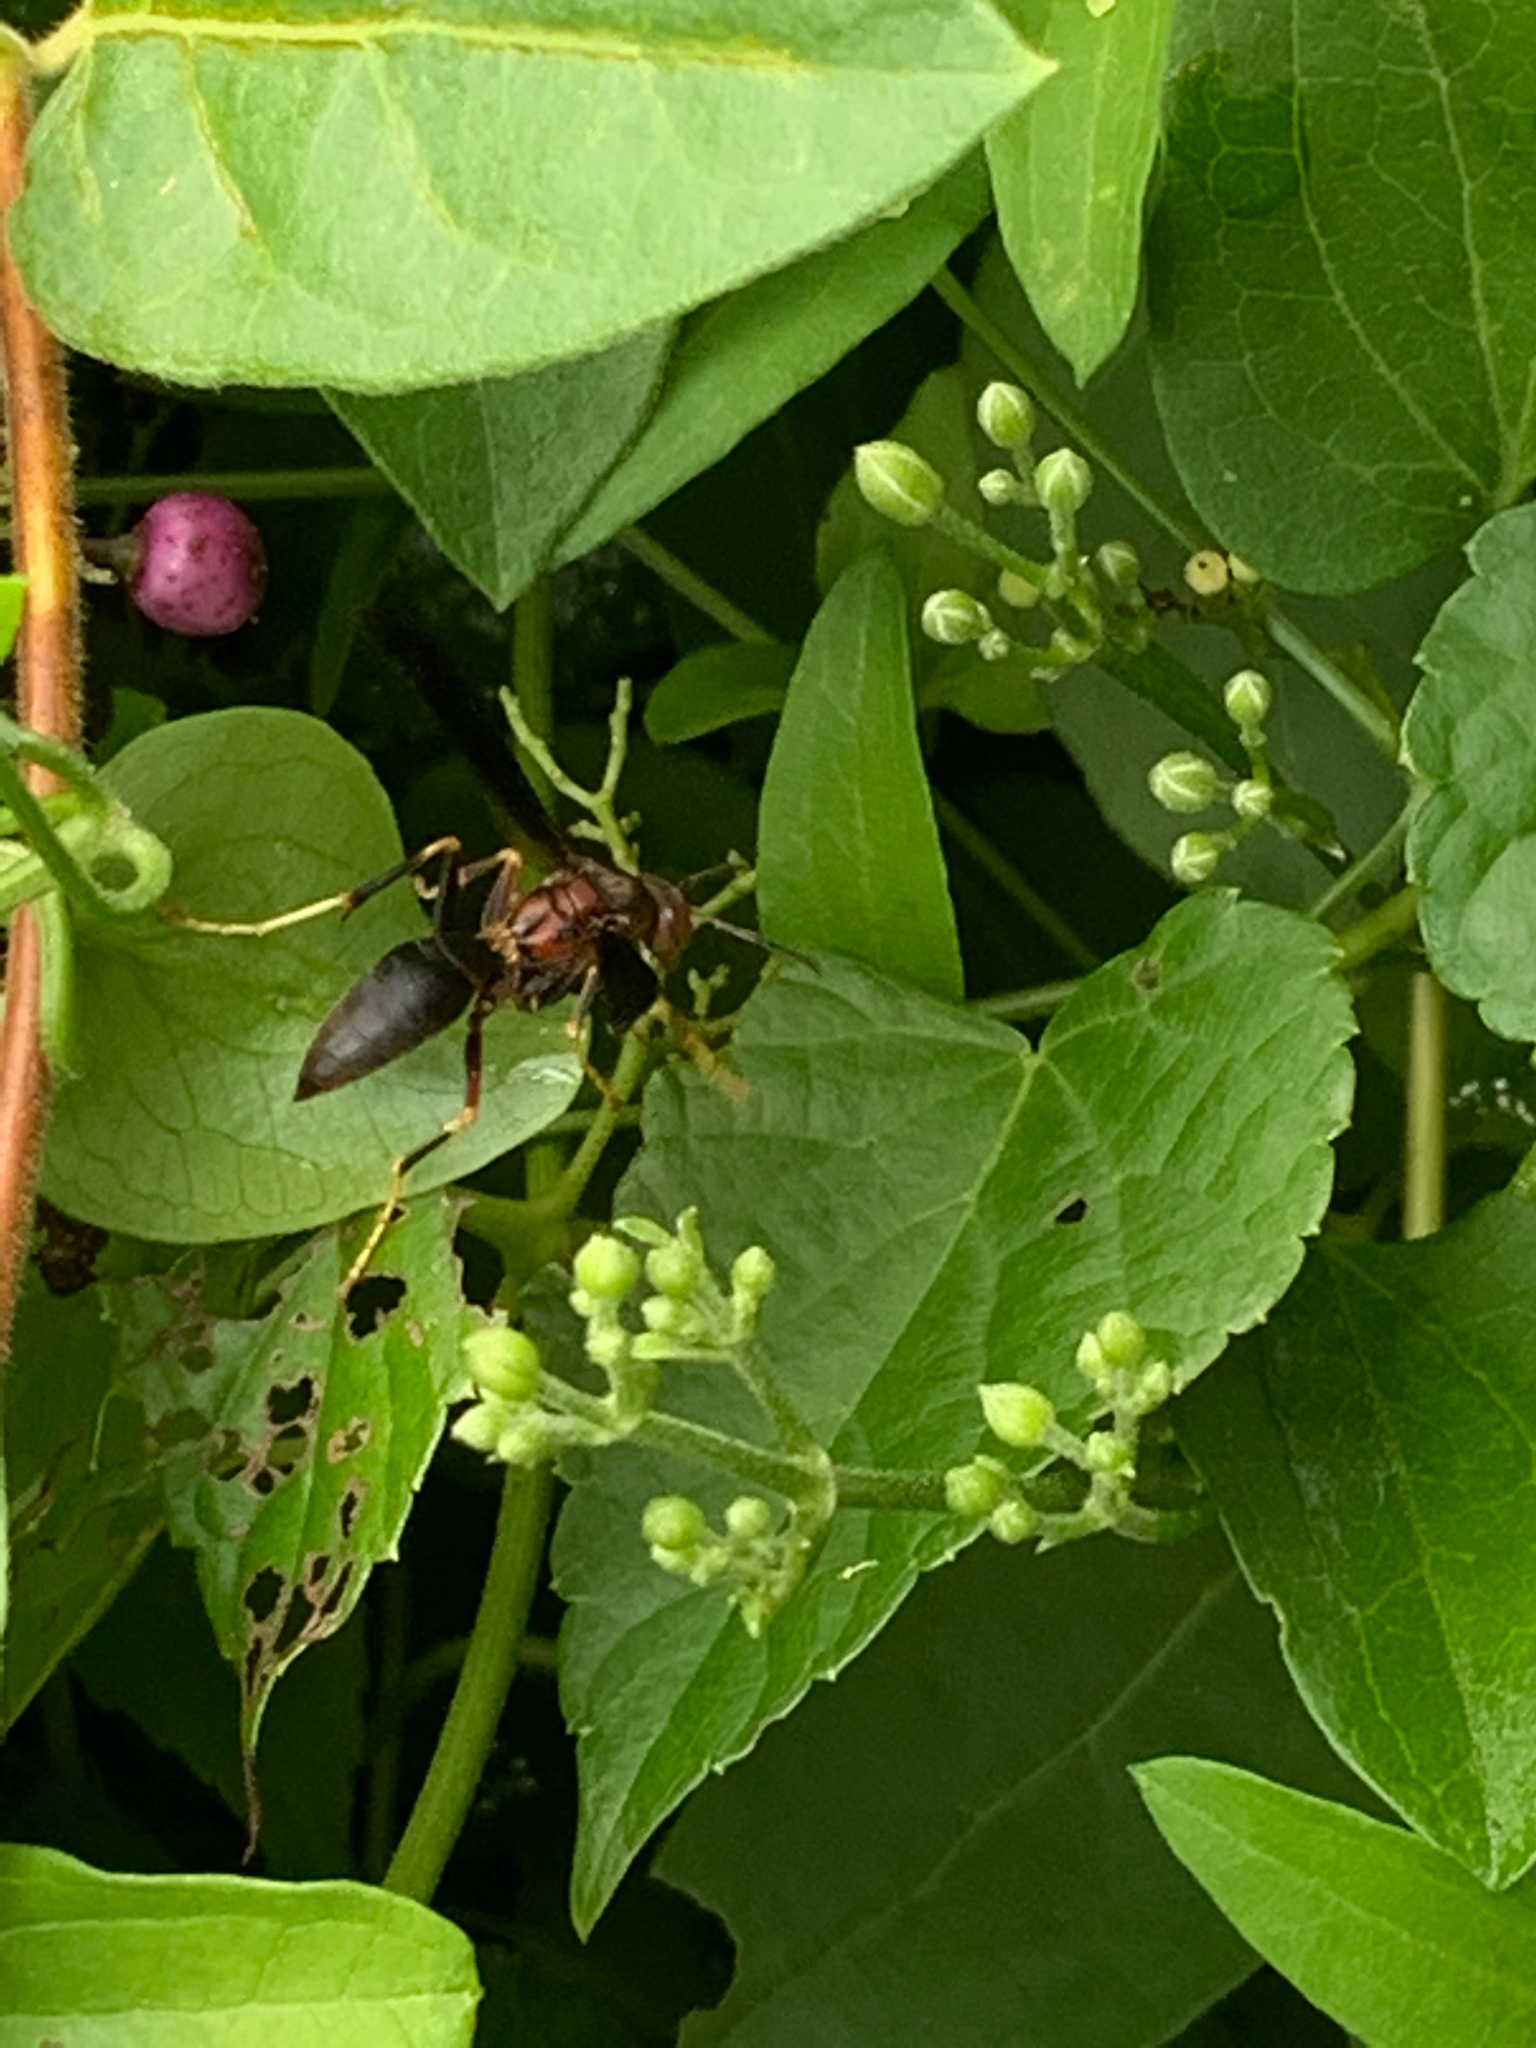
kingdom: Animalia
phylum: Arthropoda
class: Insecta
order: Hymenoptera
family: Eumenidae
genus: Polistes
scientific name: Polistes metricus
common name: Metric paper wasp
